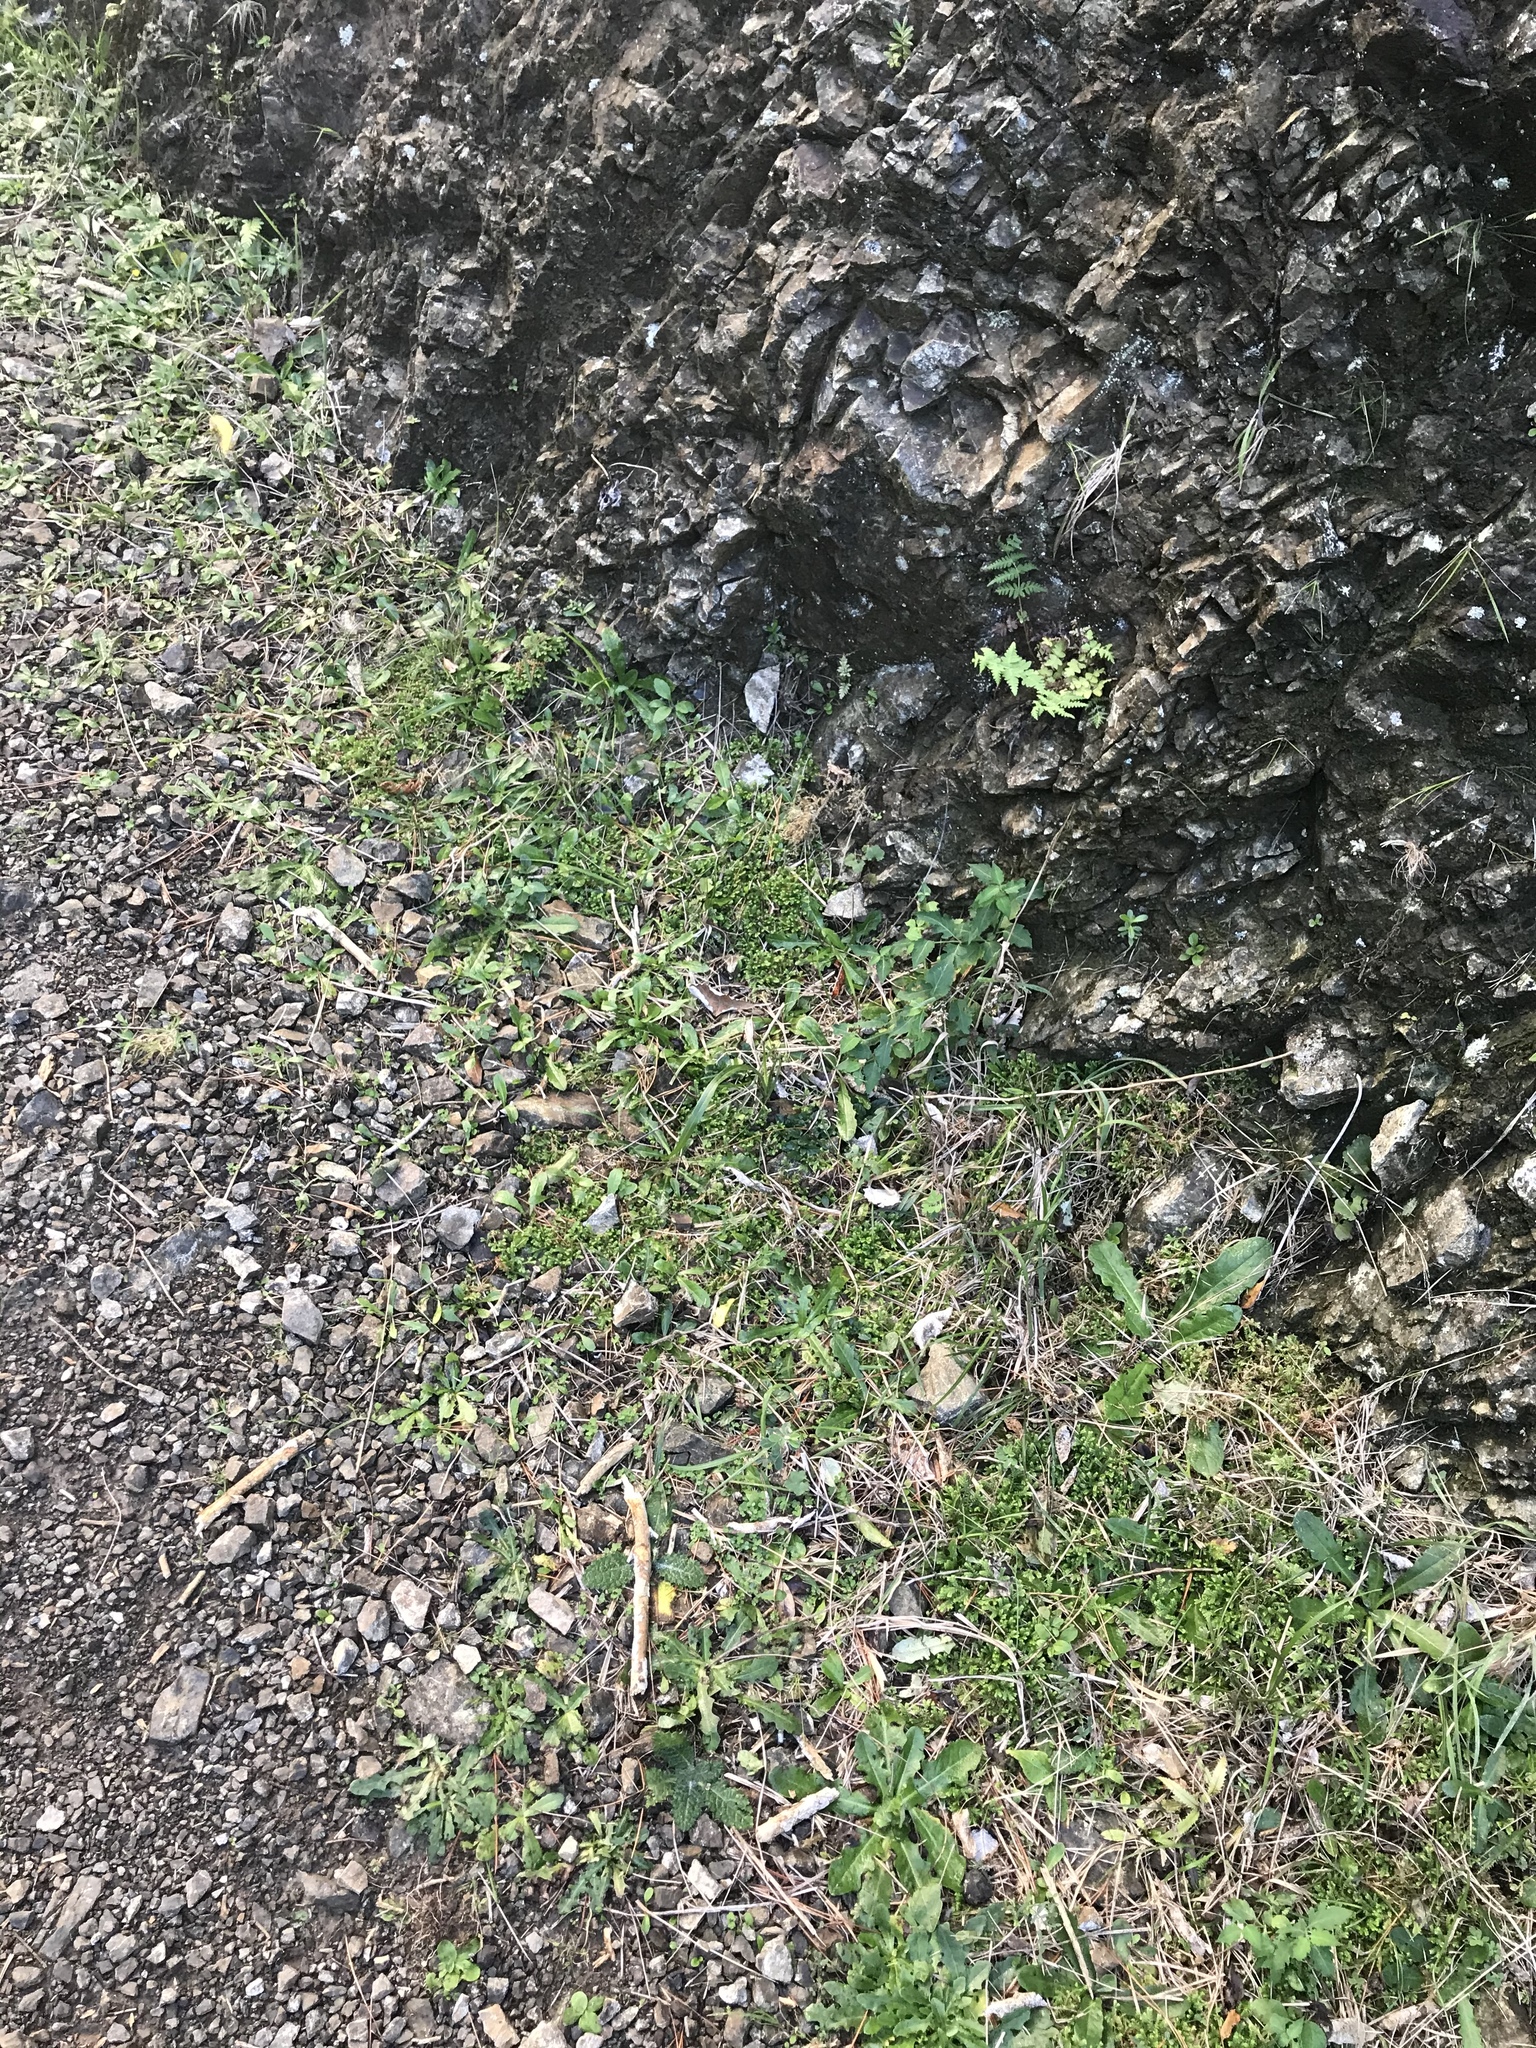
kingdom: Plantae
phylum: Tracheophyta
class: Lycopodiopsida
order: Selaginellales
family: Selaginellaceae
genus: Selaginella
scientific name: Selaginella kraussiana
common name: Krauss' spikemoss
